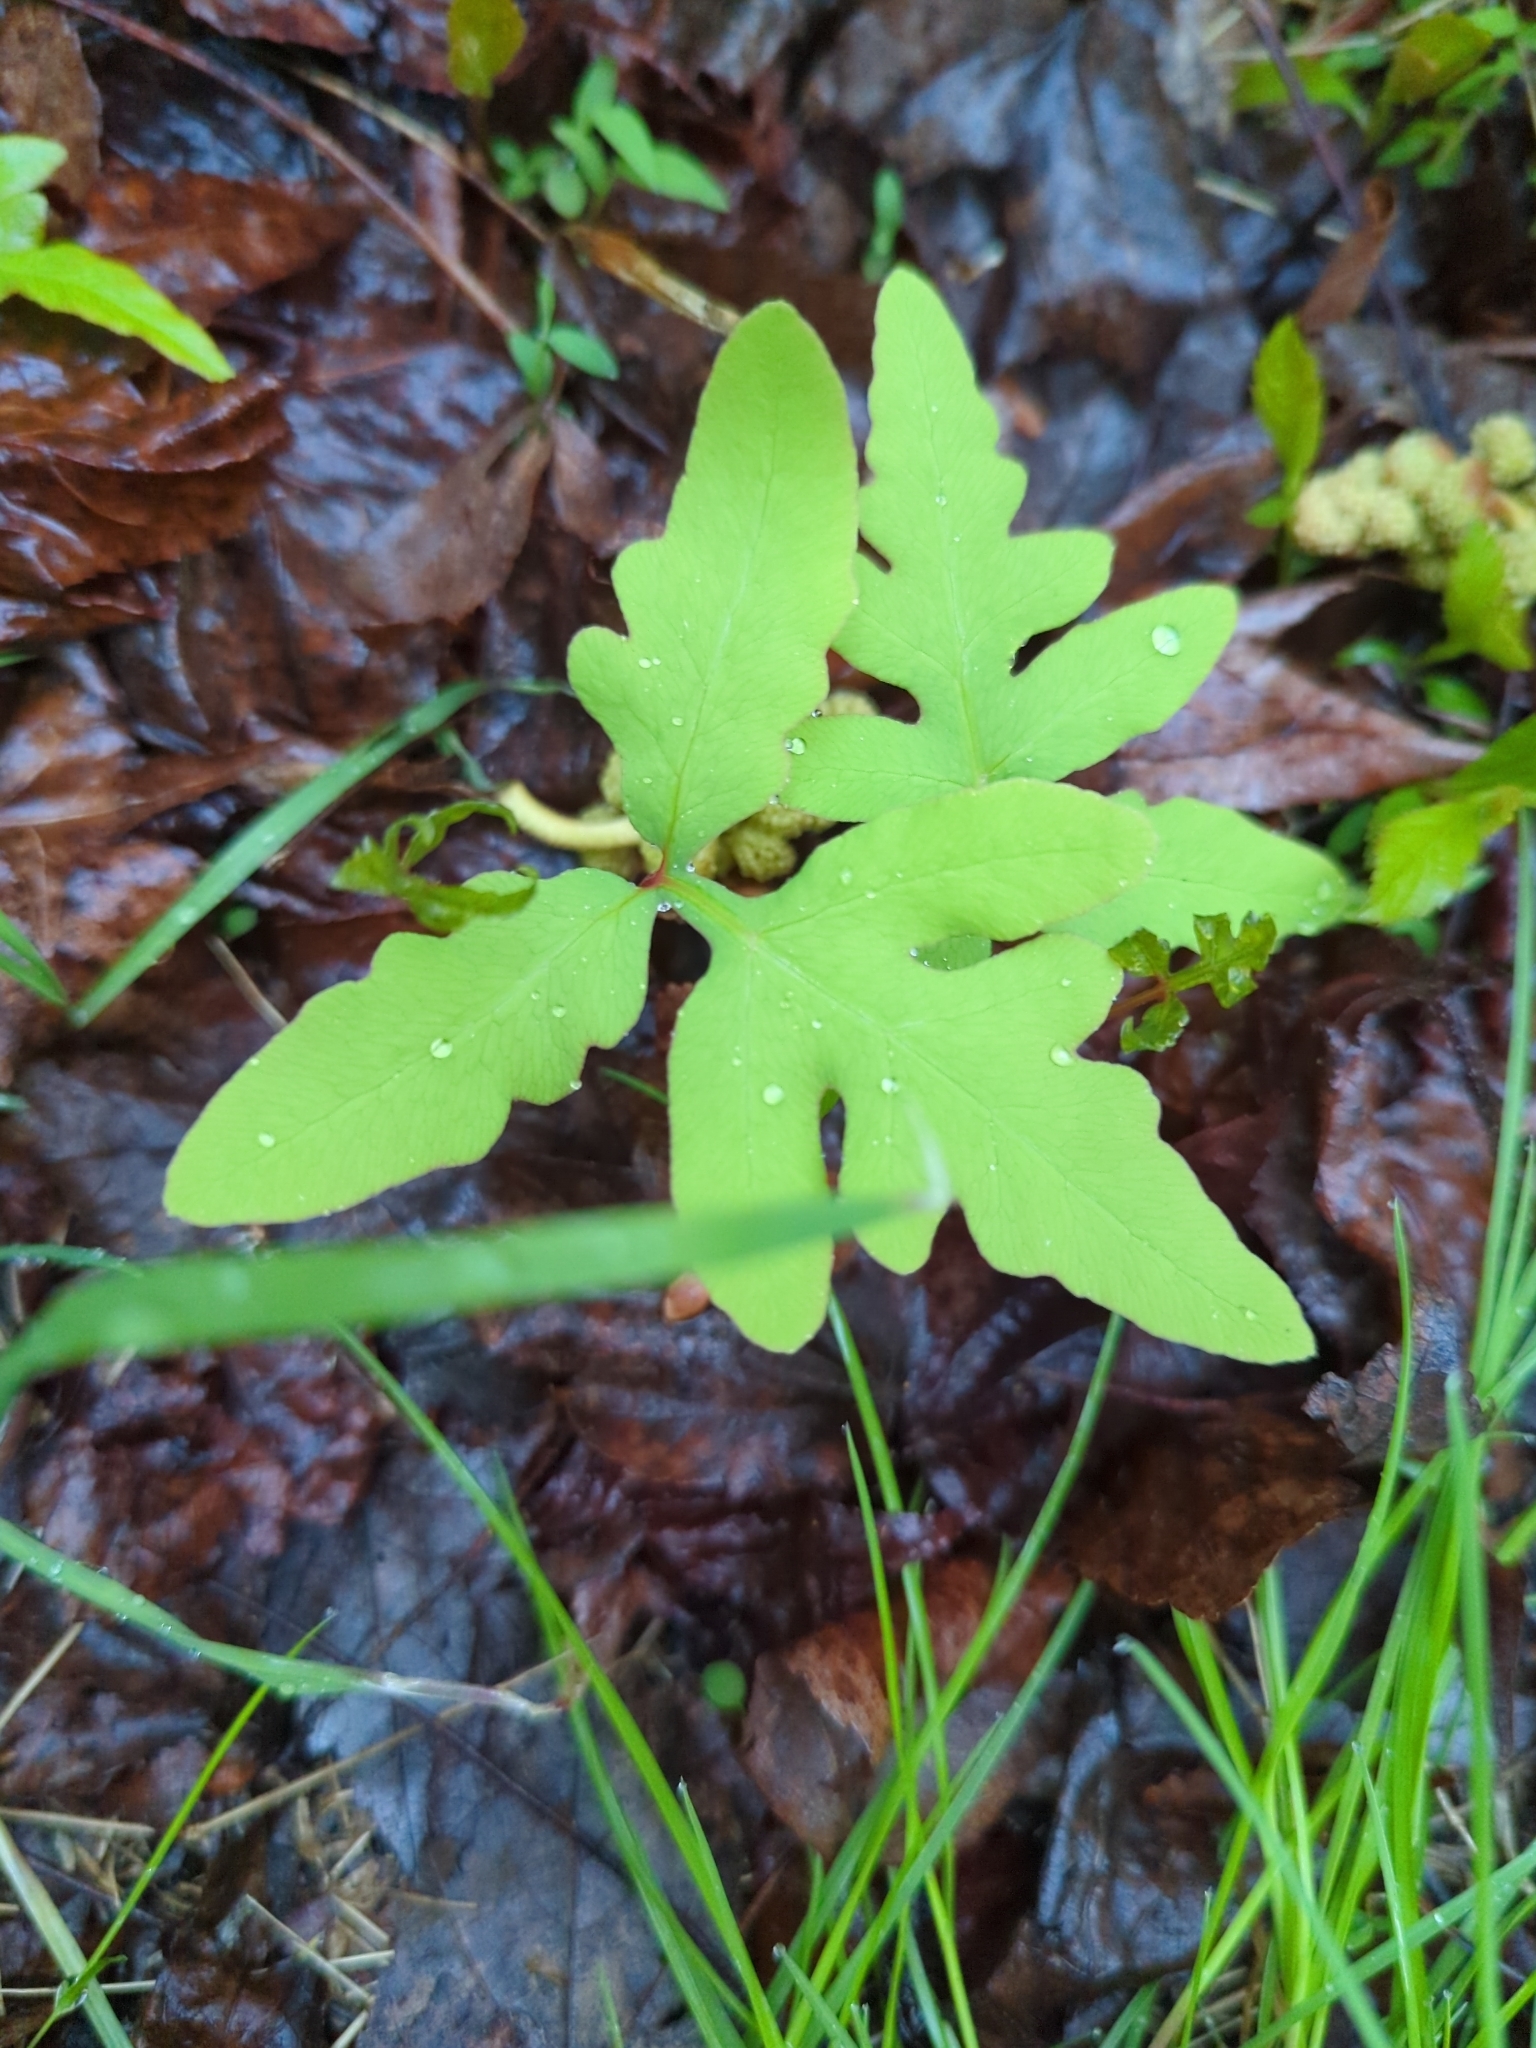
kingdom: Plantae
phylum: Tracheophyta
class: Polypodiopsida
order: Polypodiales
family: Onocleaceae
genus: Onoclea
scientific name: Onoclea sensibilis
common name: Sensitive fern
